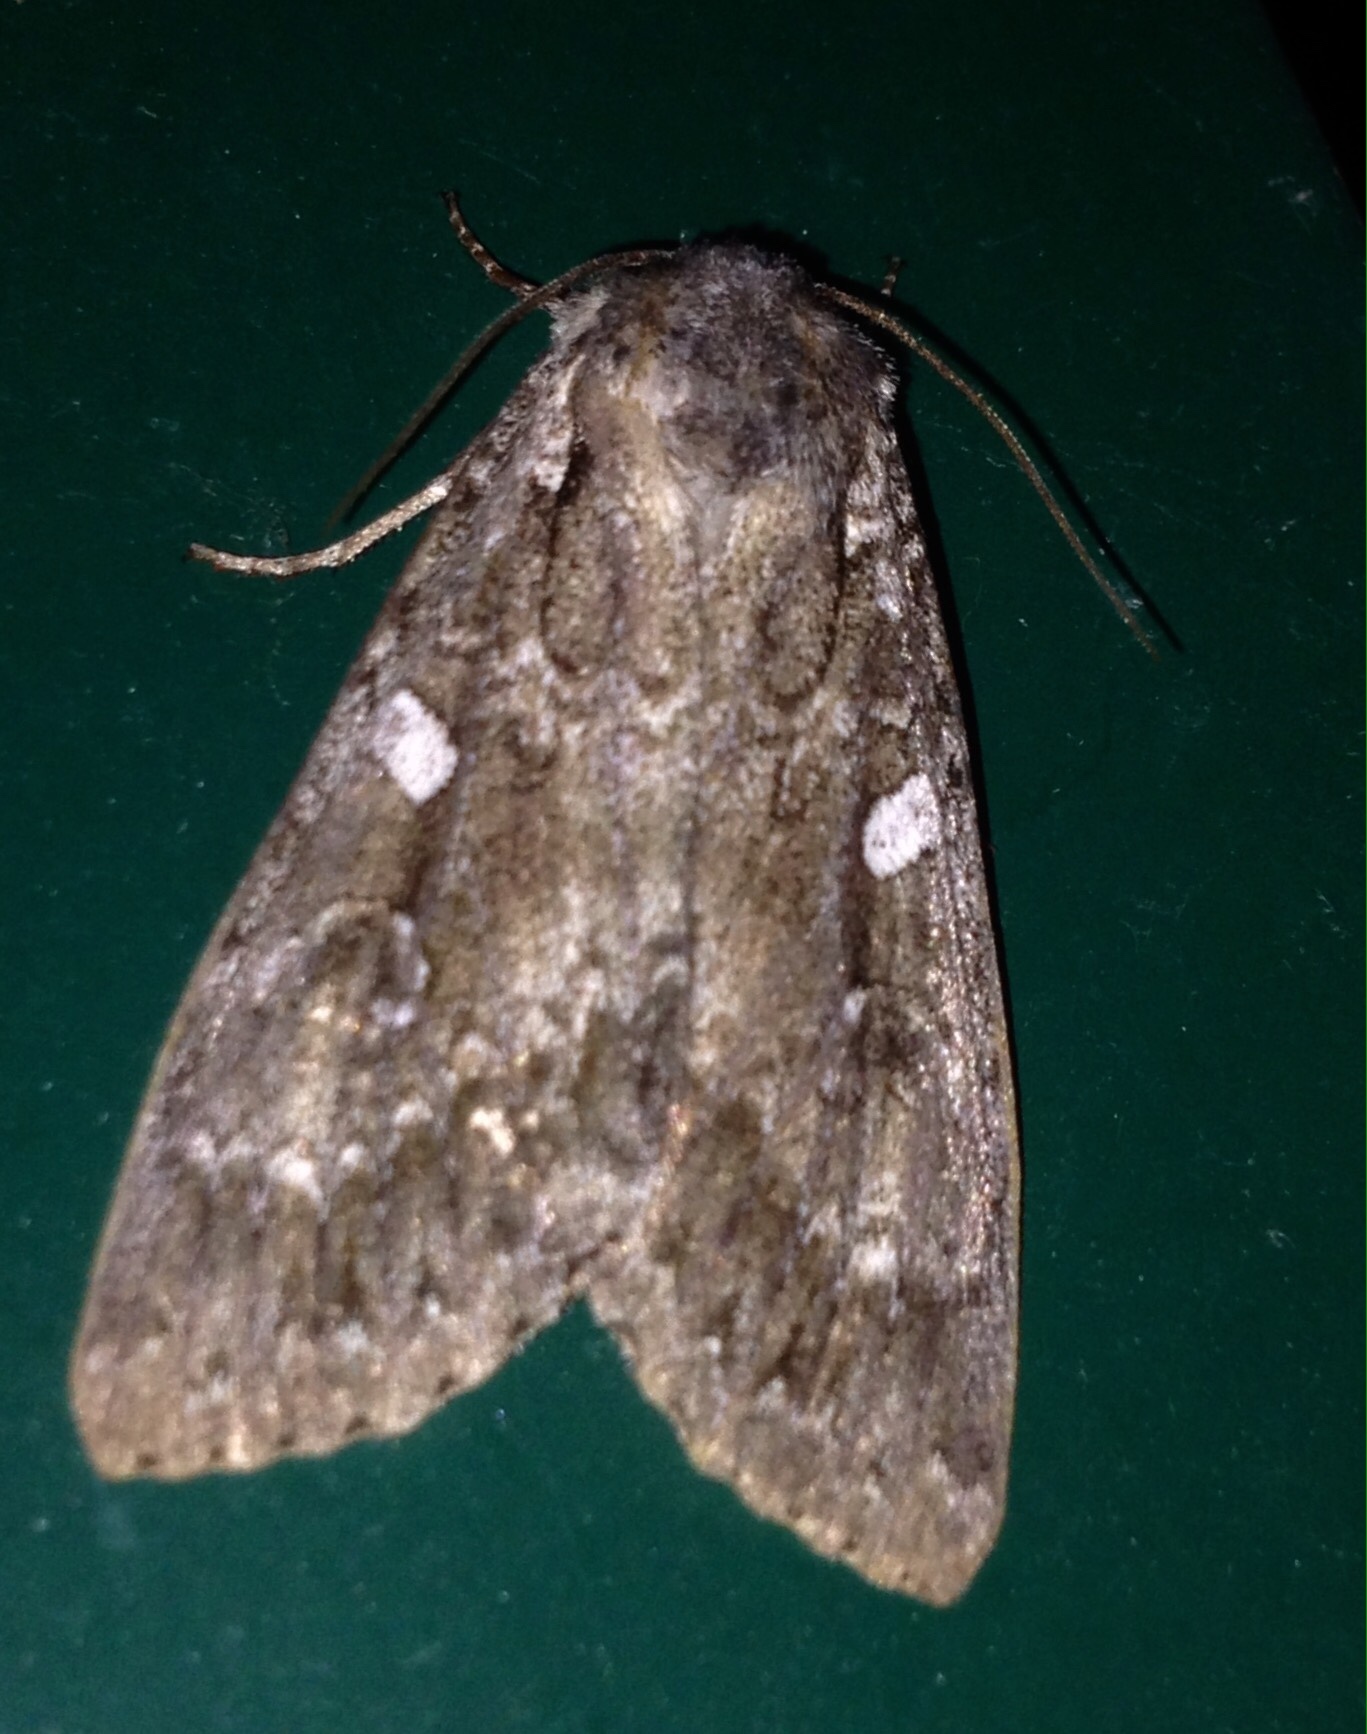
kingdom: Animalia
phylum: Arthropoda
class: Insecta
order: Lepidoptera
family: Noctuidae
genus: Eurois
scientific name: Eurois occulta
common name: Great brocade
